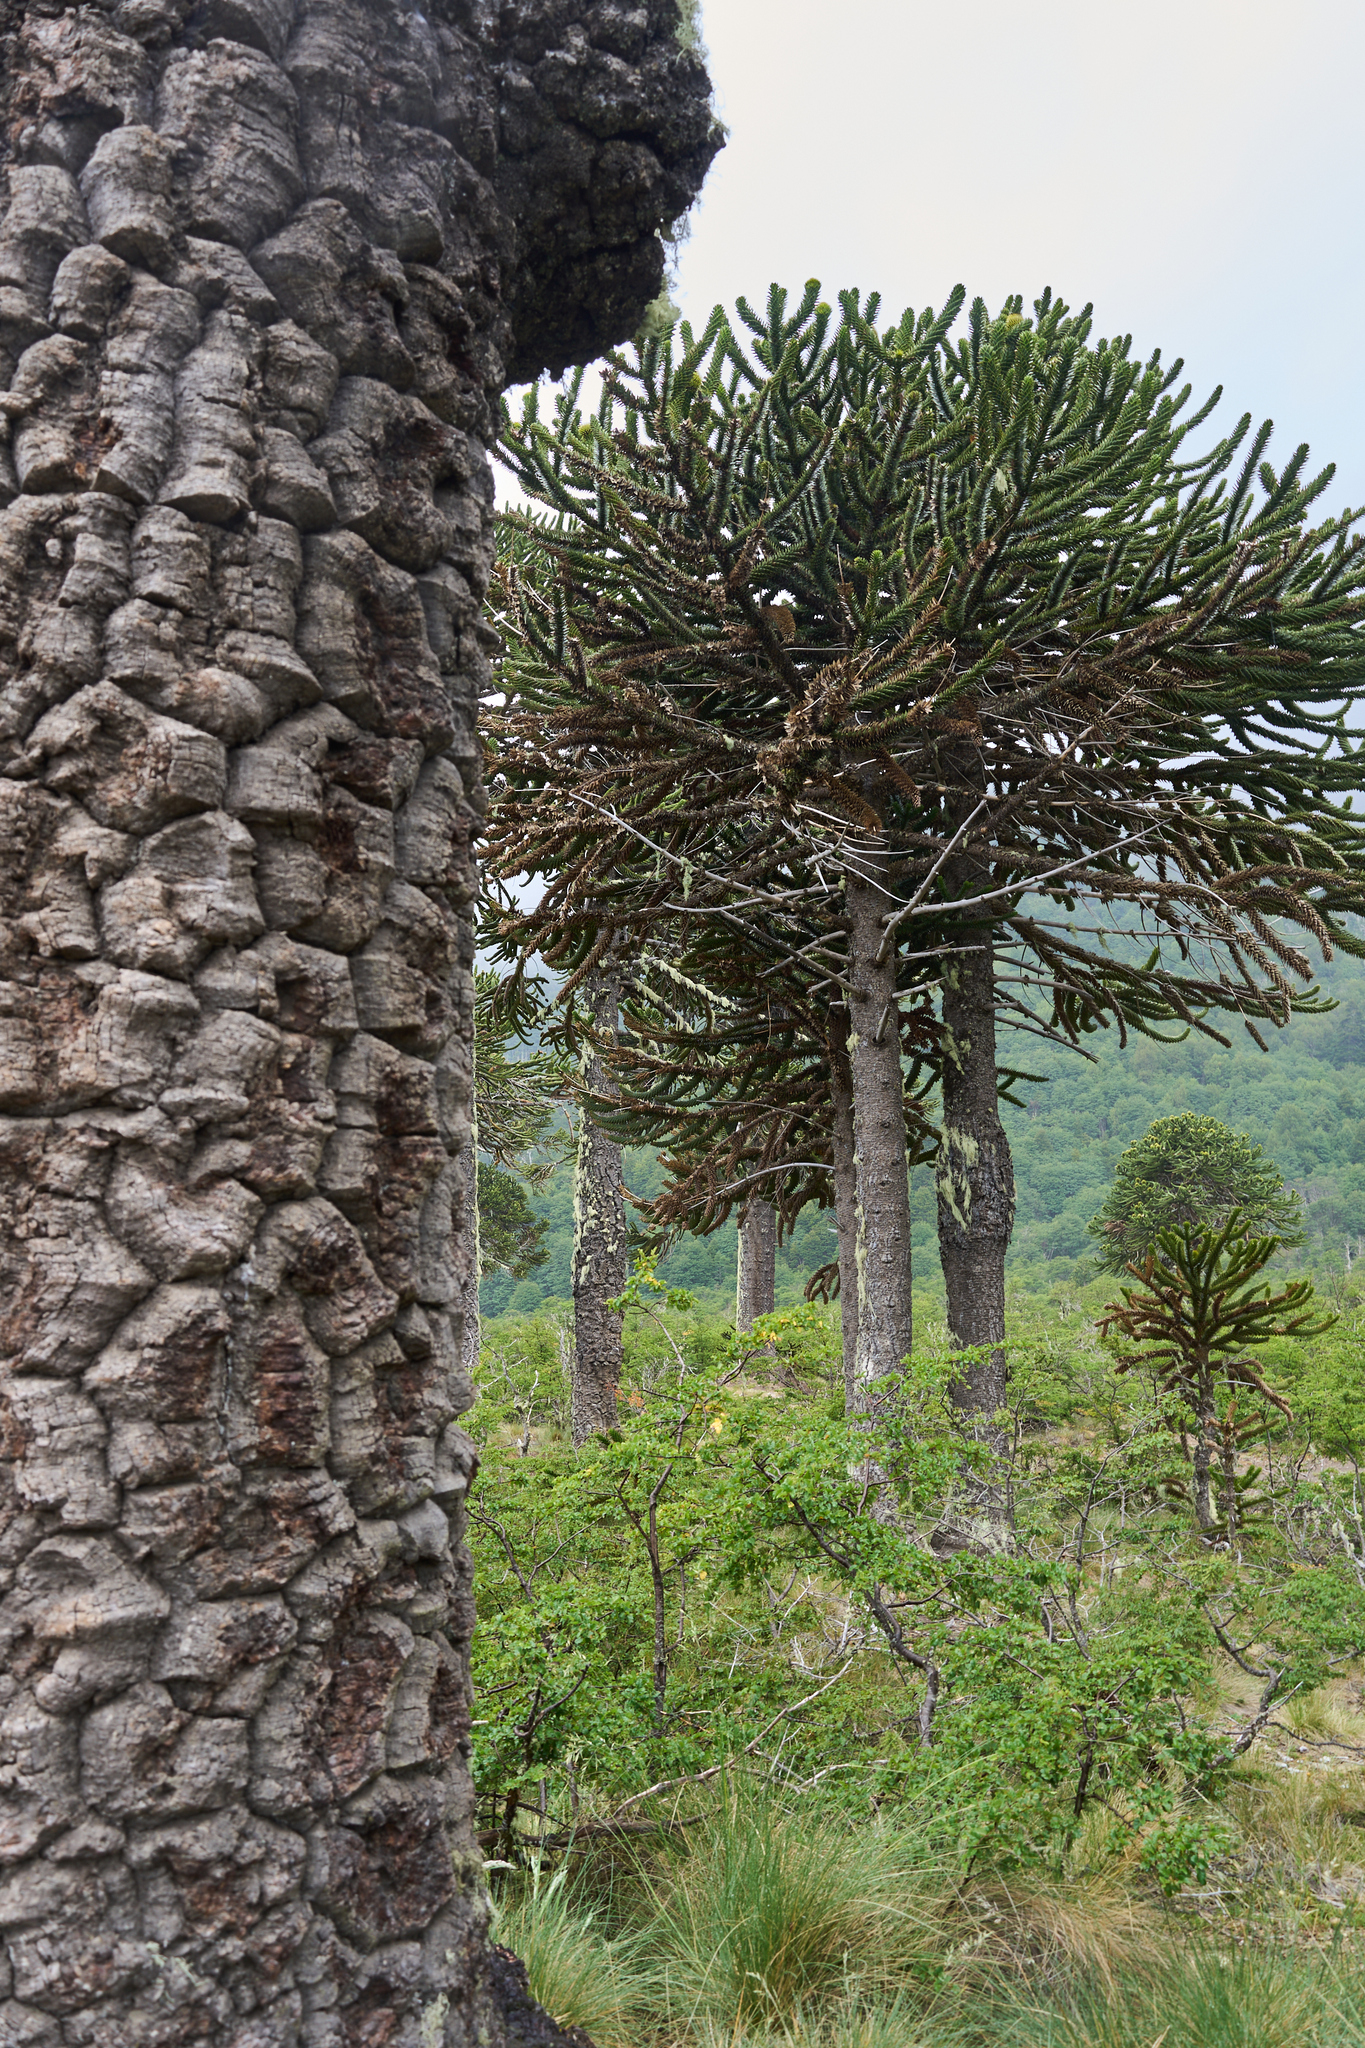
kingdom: Plantae
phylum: Tracheophyta
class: Pinopsida
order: Pinales
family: Araucariaceae
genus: Araucaria
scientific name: Araucaria araucana
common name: Monkey-puzzle
